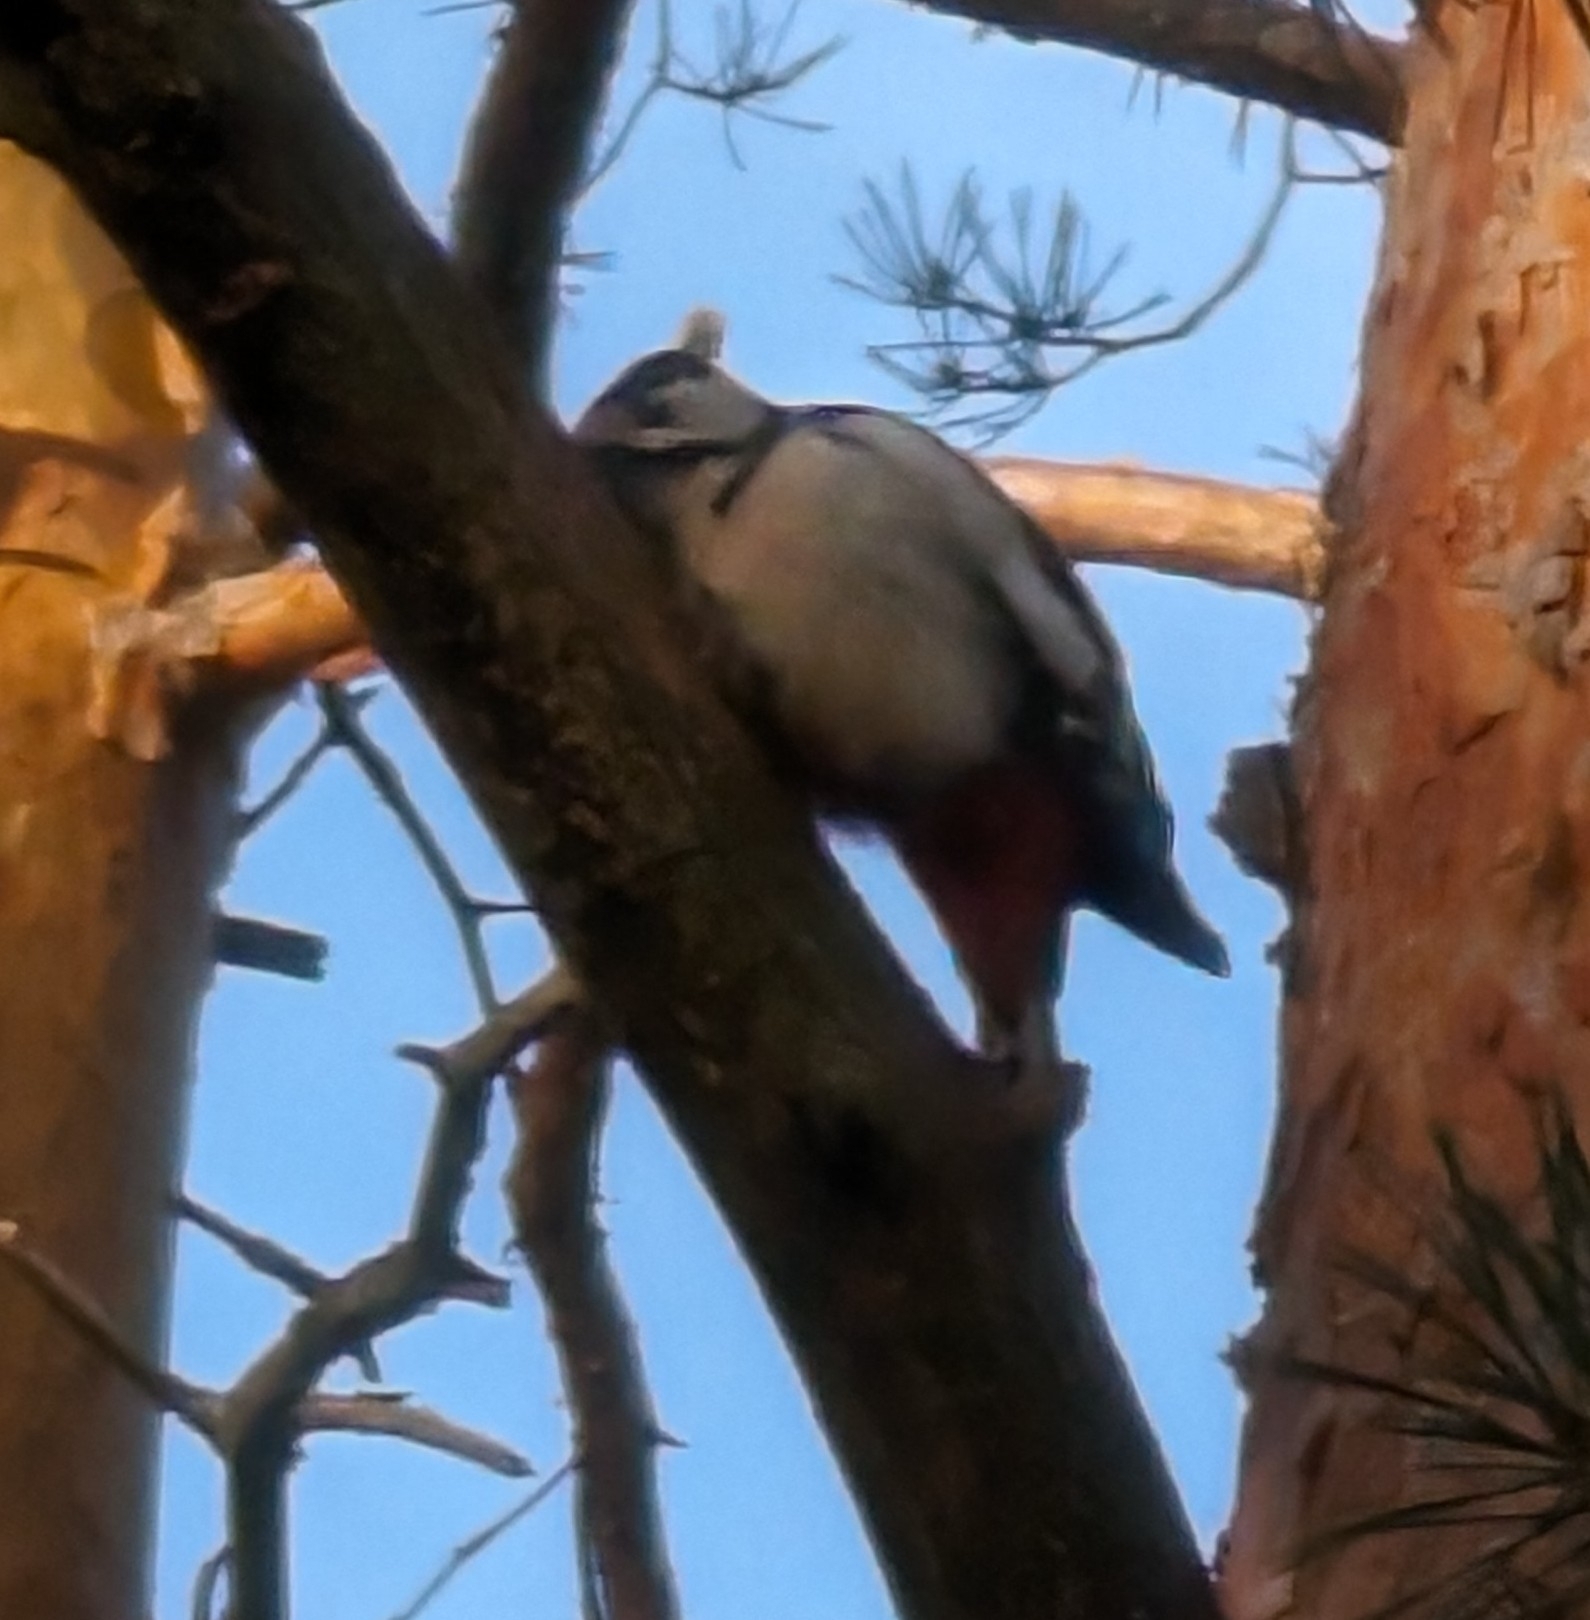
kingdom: Animalia
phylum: Chordata
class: Aves
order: Piciformes
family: Picidae
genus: Dendrocopos
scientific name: Dendrocopos major
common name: Great spotted woodpecker
